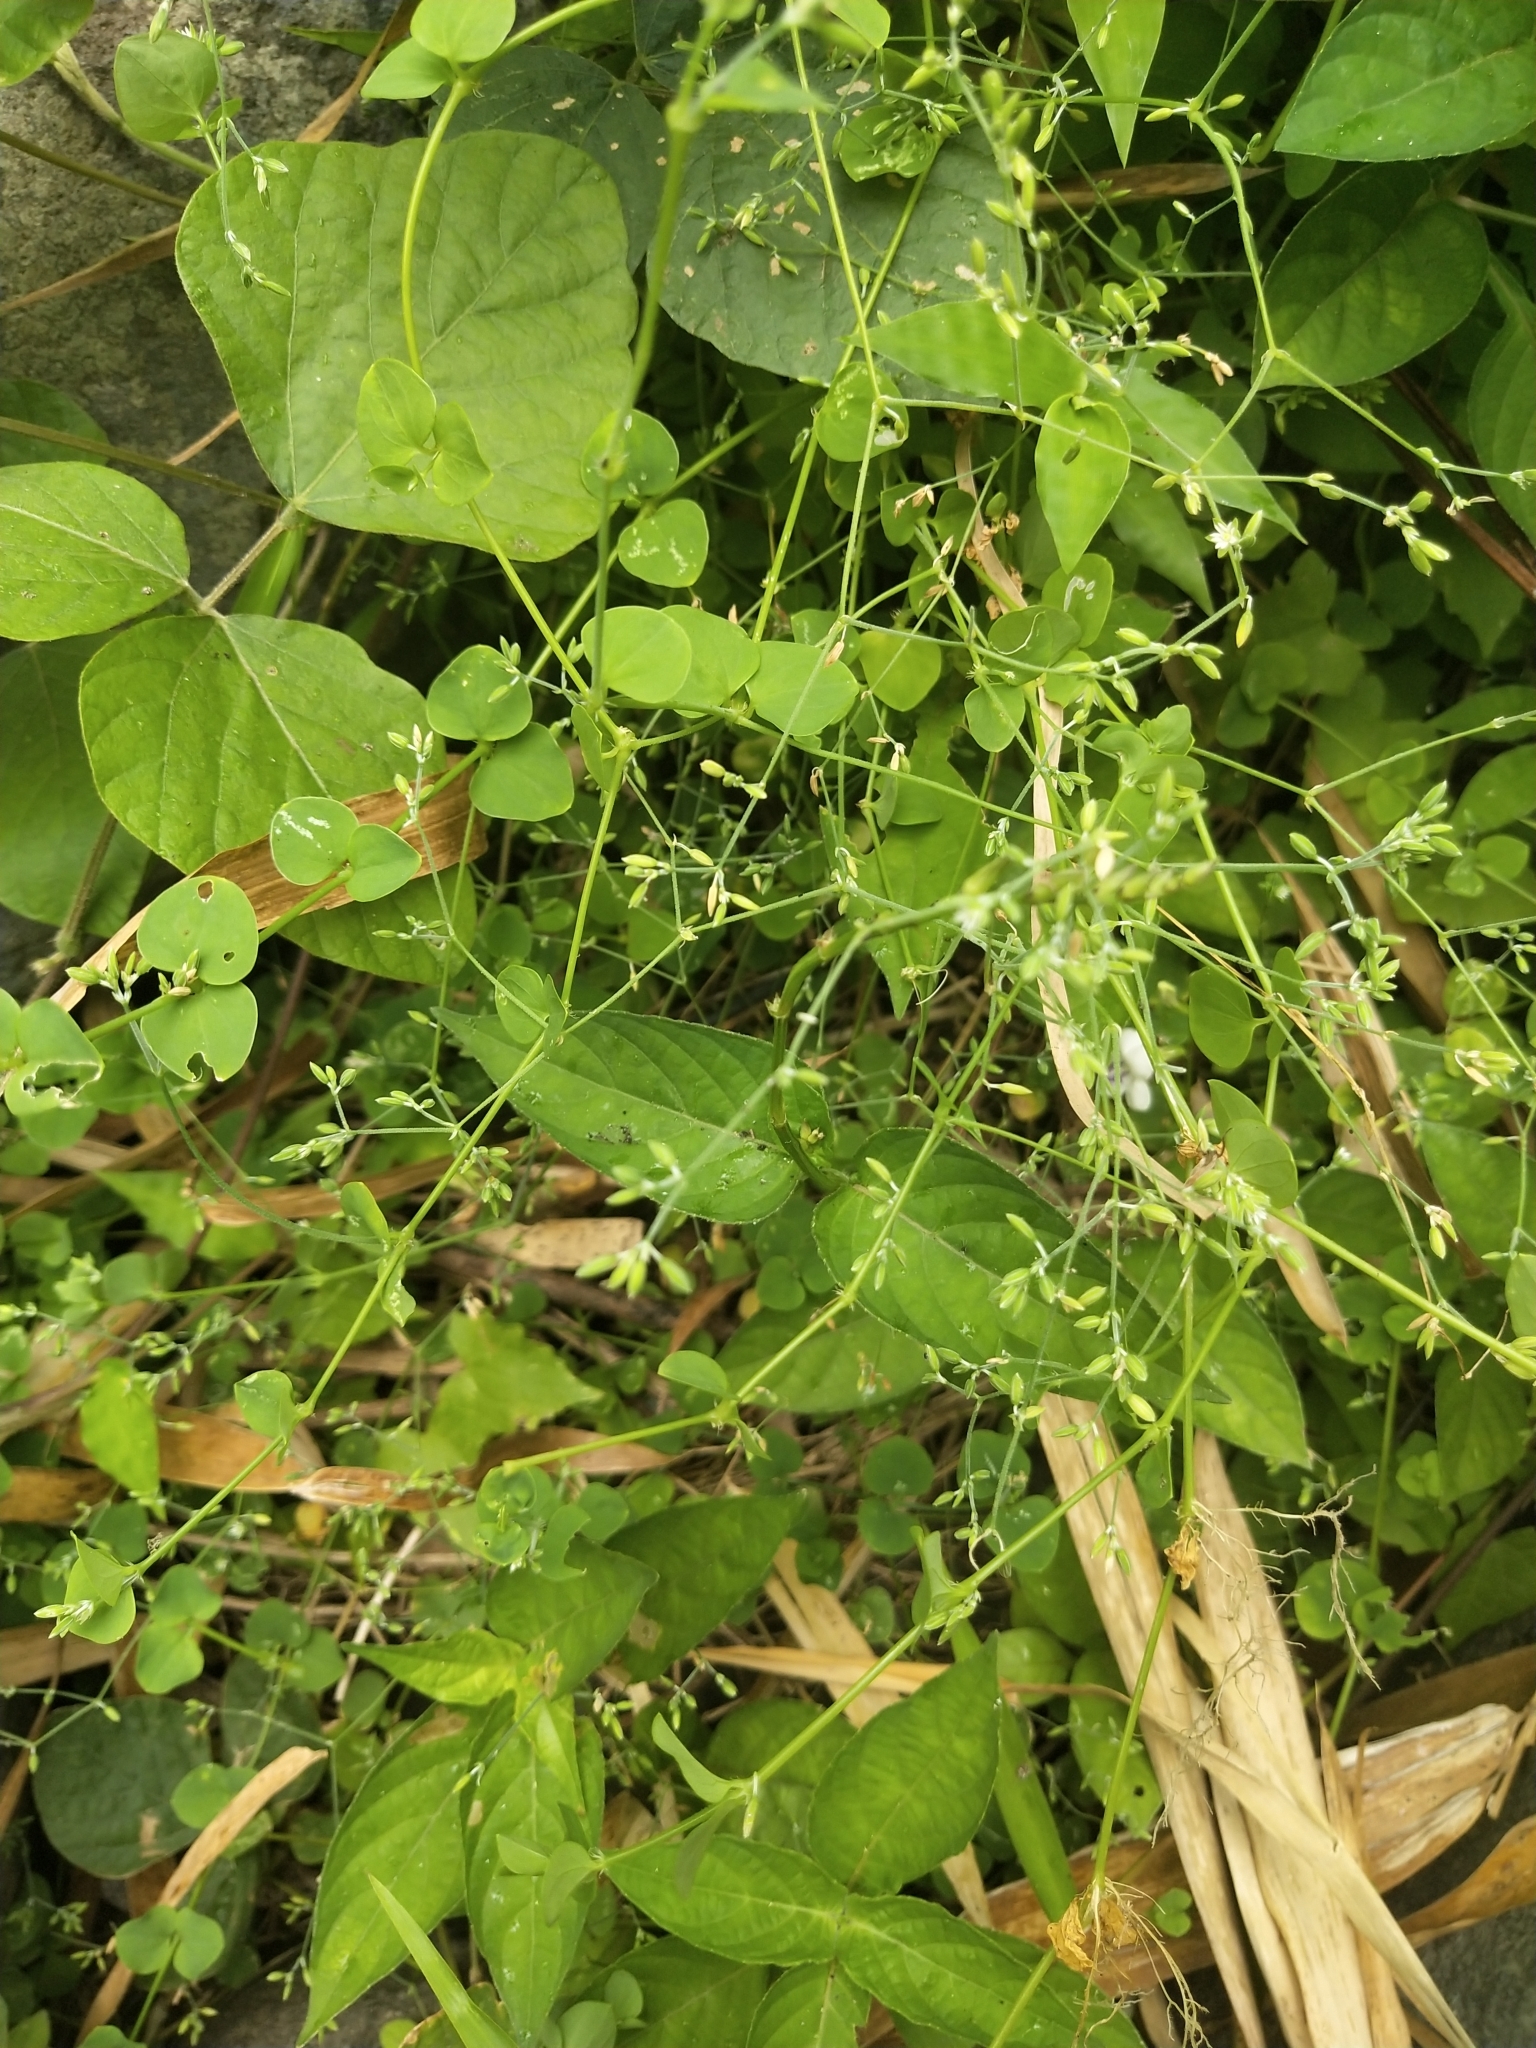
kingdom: Plantae
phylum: Tracheophyta
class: Magnoliopsida
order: Caryophyllales
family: Caryophyllaceae
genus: Drymaria
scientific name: Drymaria cordata
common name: Whitesnow
